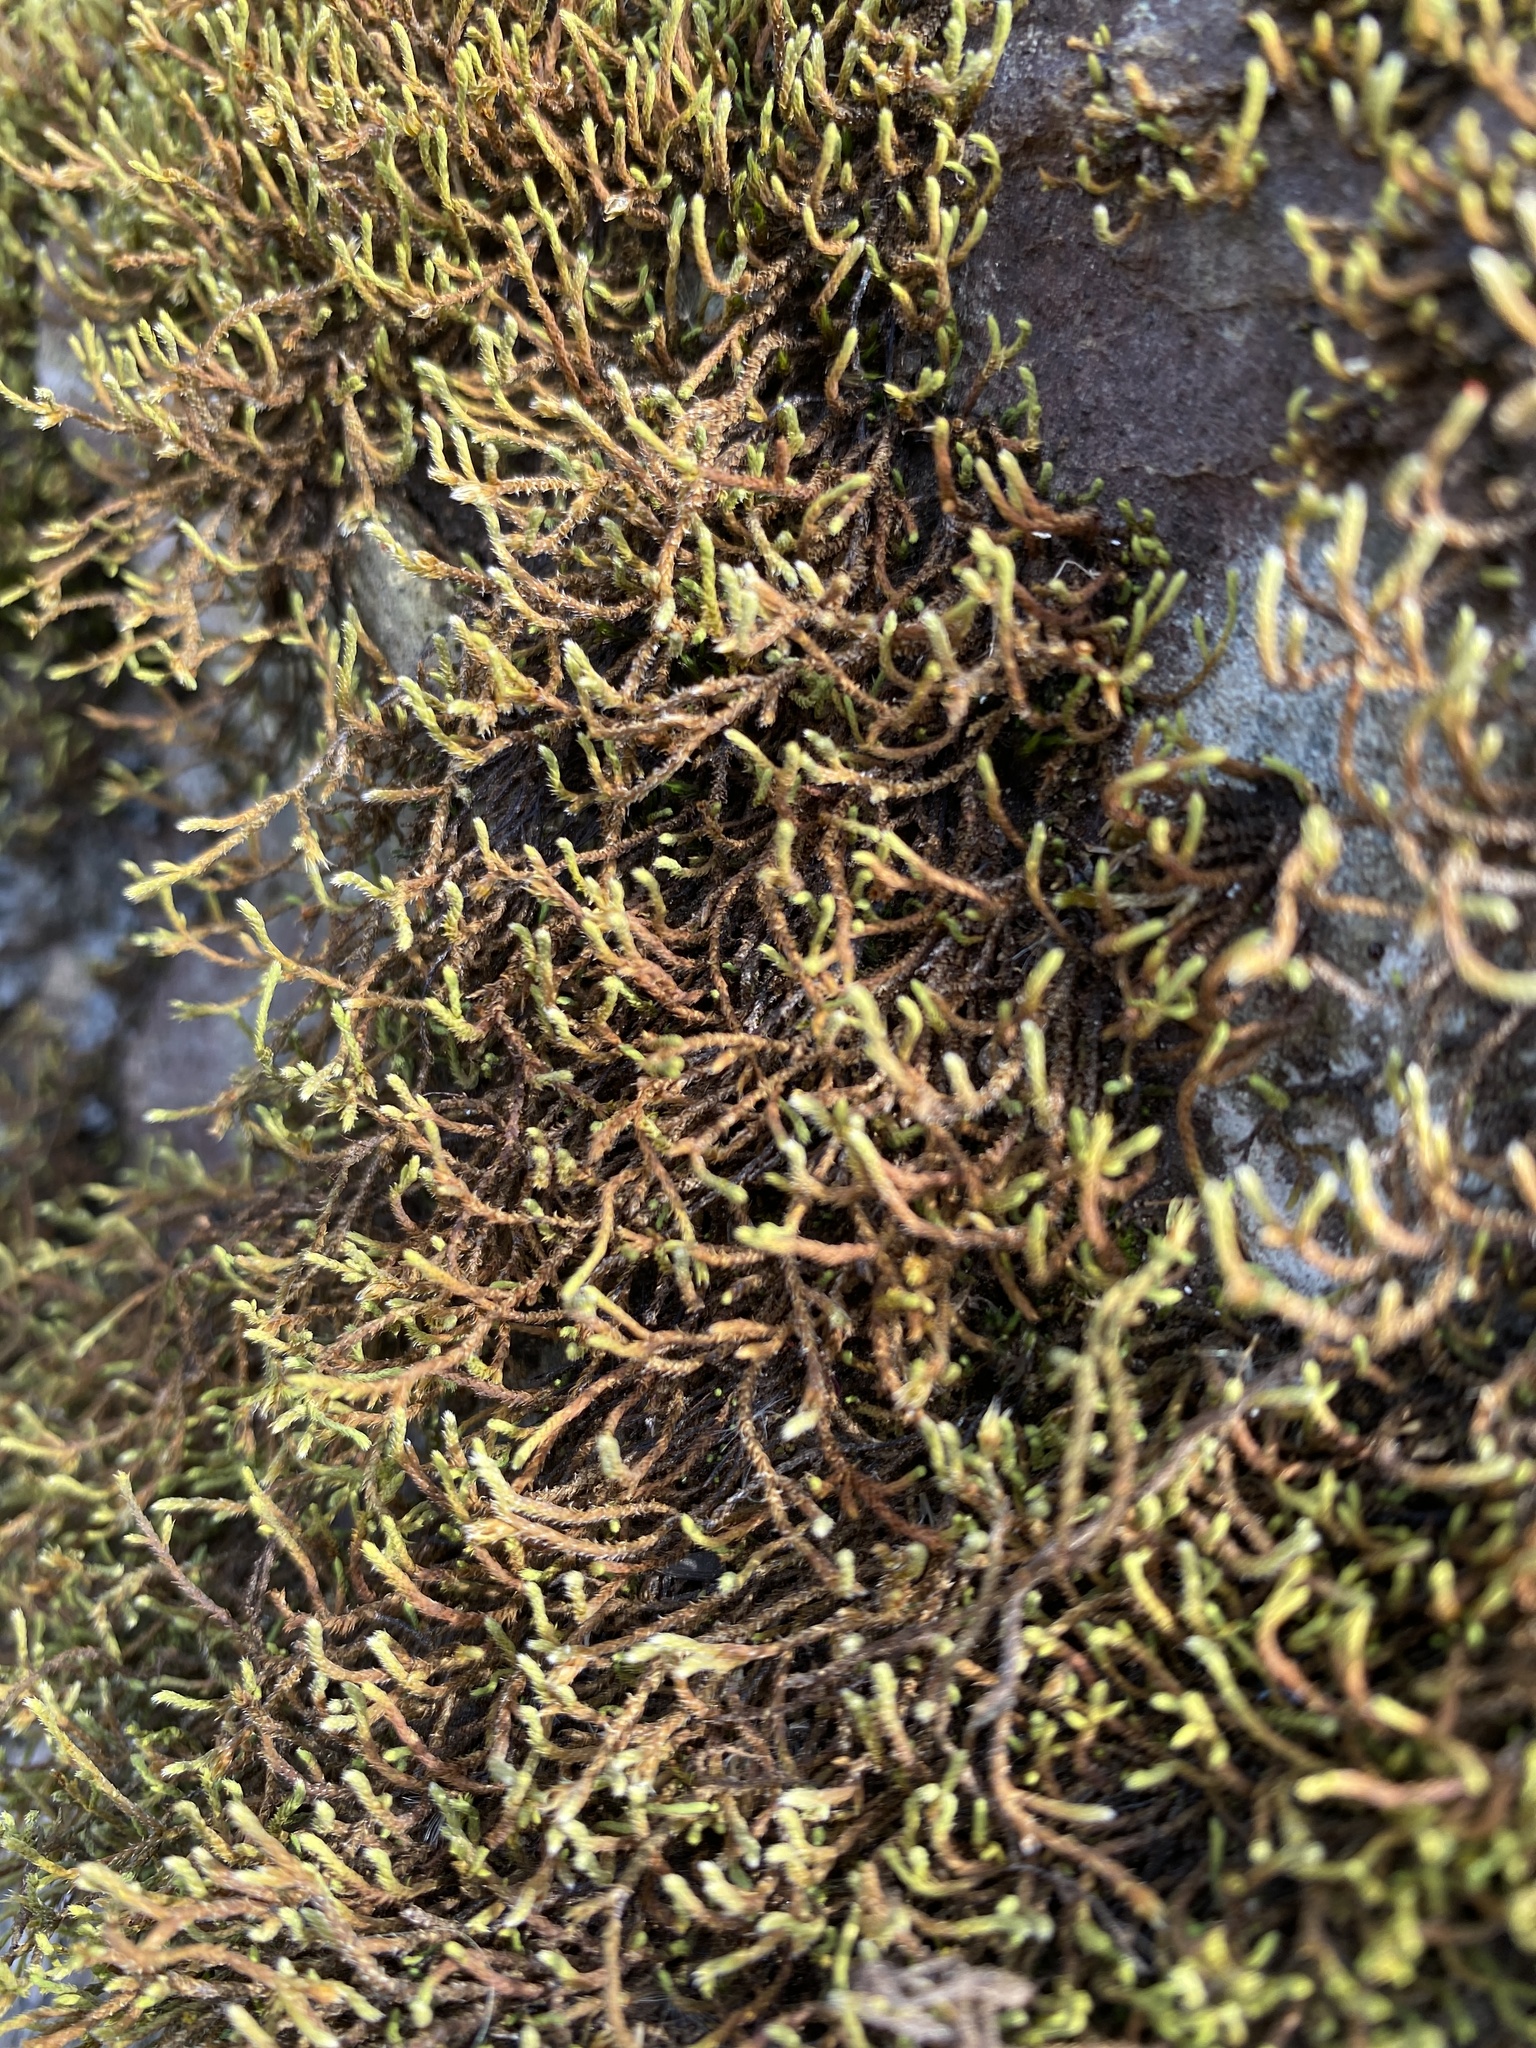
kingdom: Plantae
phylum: Bryophyta
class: Bryopsida
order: Hedwigiales
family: Hedwigiaceae
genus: Hedwigia
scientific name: Hedwigia ciliata
